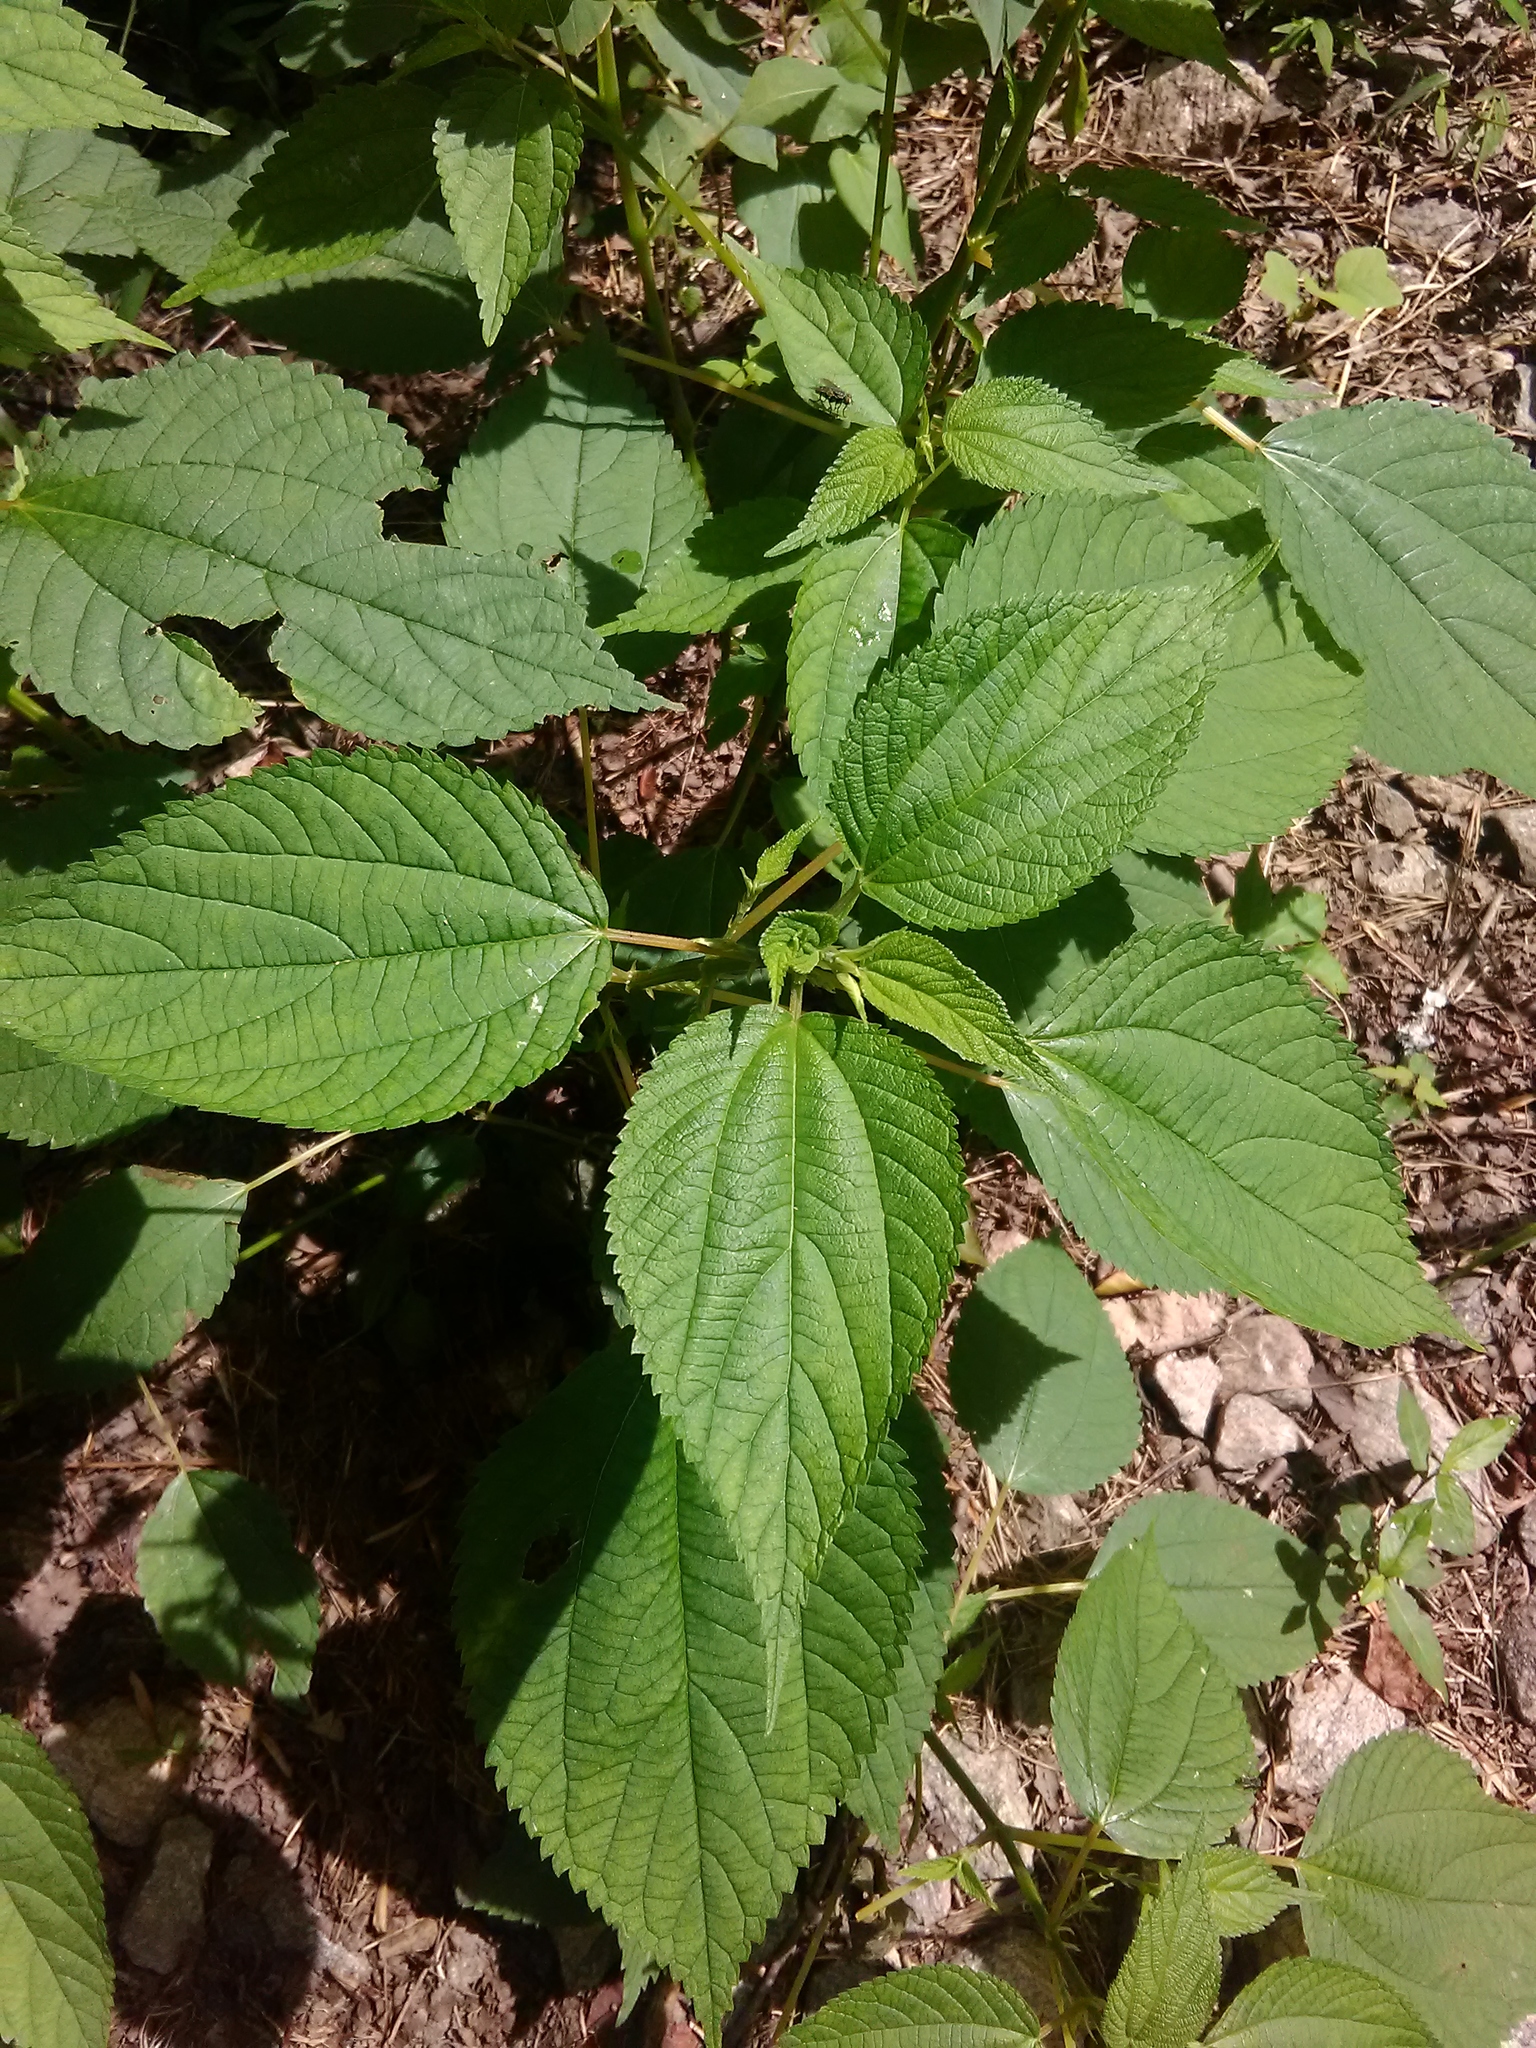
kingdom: Plantae
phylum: Tracheophyta
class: Magnoliopsida
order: Rosales
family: Urticaceae
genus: Boehmeria
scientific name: Boehmeria cylindrica
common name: Bog-hemp
